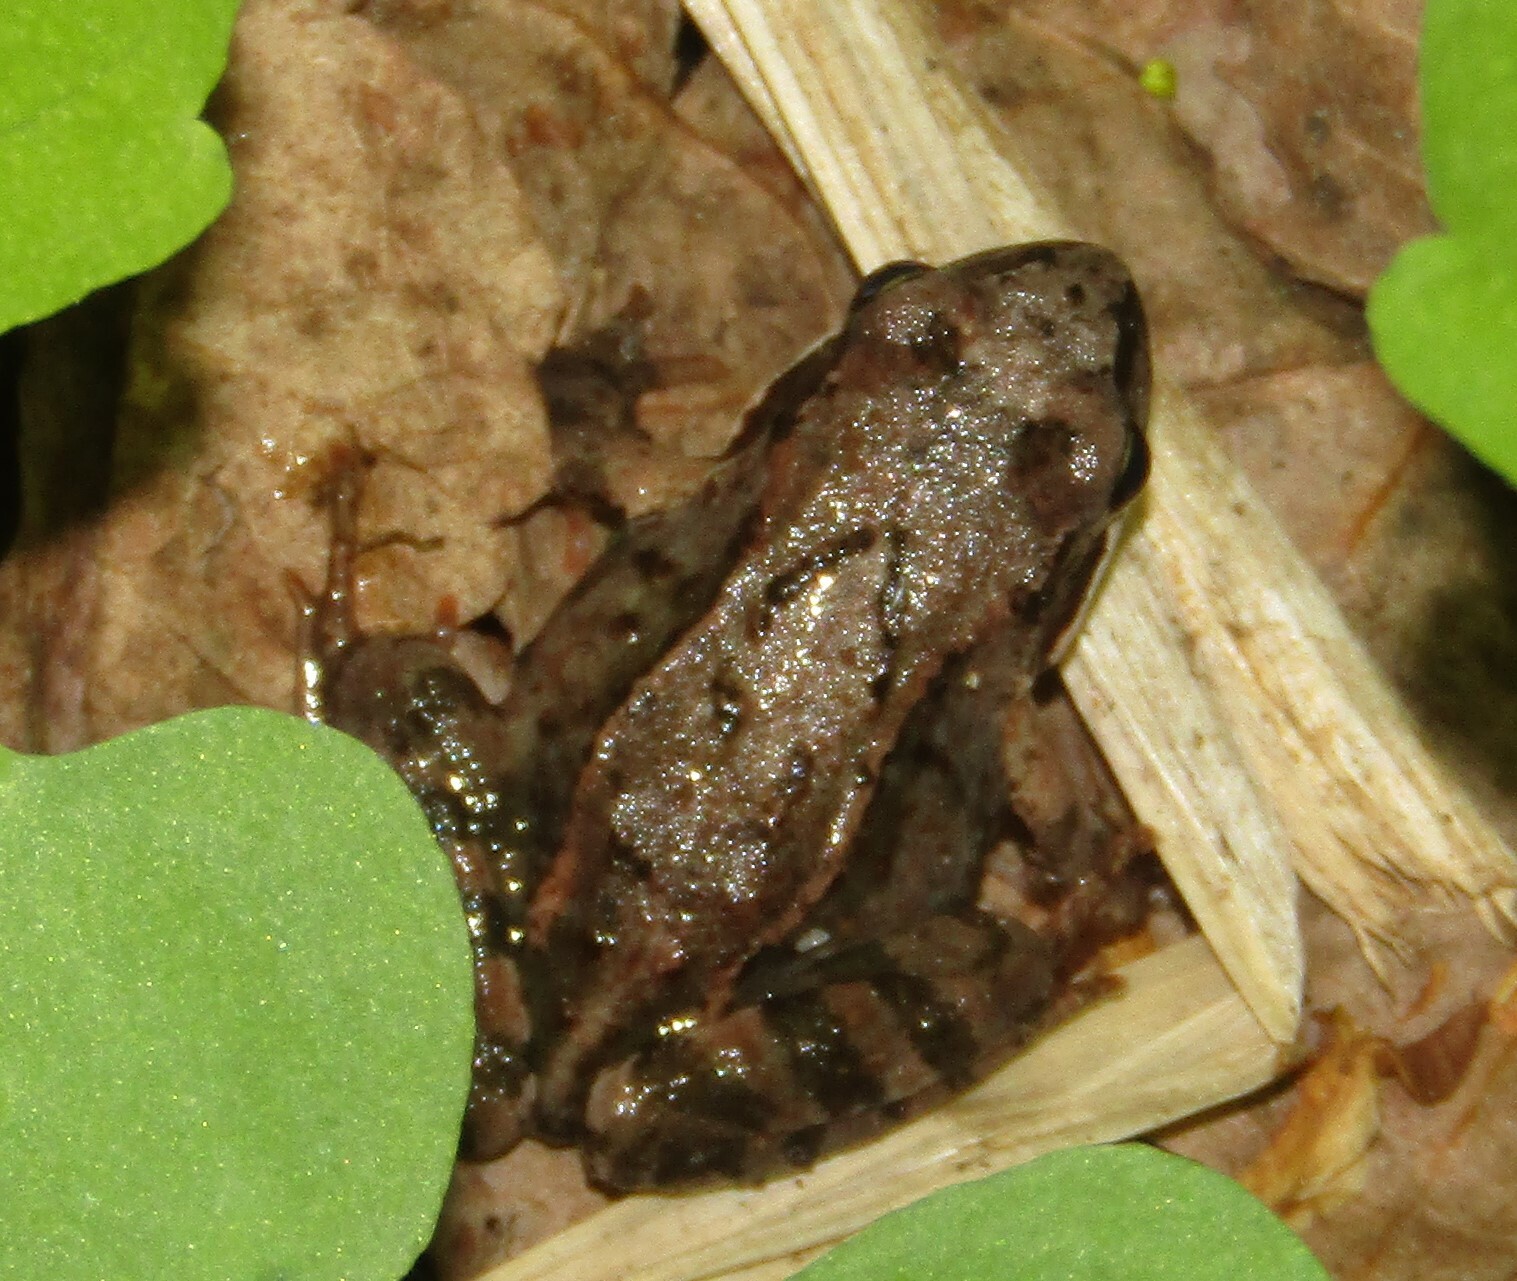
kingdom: Animalia
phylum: Chordata
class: Amphibia
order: Anura
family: Ranidae
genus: Rana
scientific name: Rana temporaria
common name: Common frog
